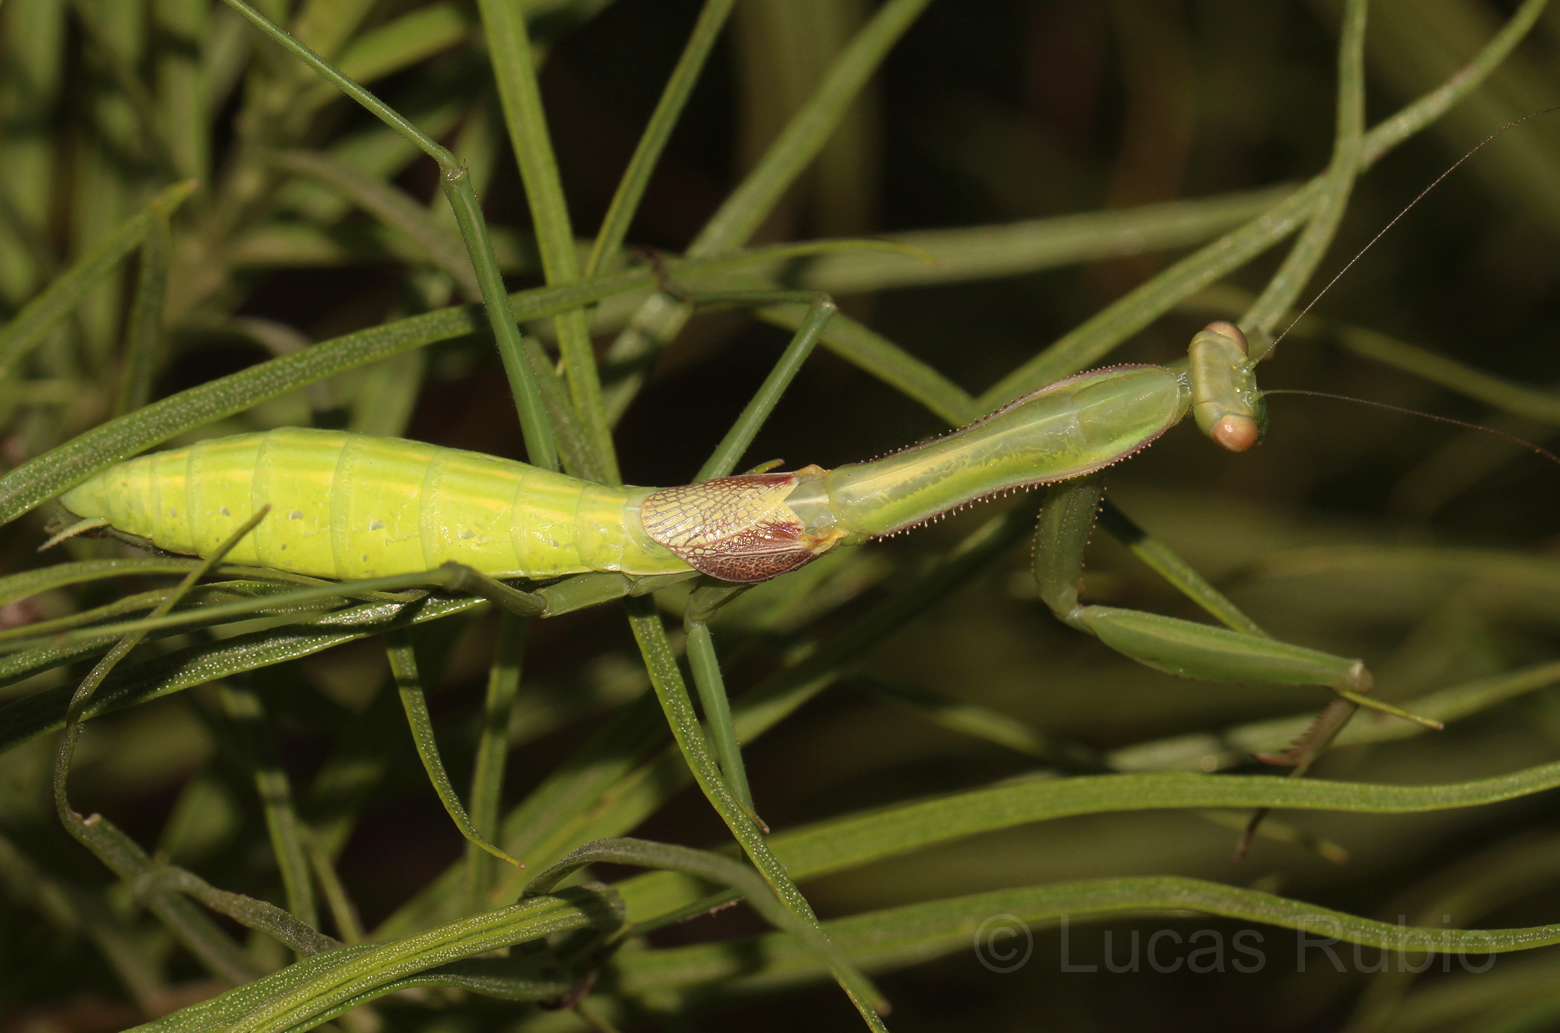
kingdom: Animalia
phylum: Arthropoda
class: Insecta
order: Mantodea
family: Coptopterygidae
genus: Coptopteryx
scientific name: Coptopteryx parva
